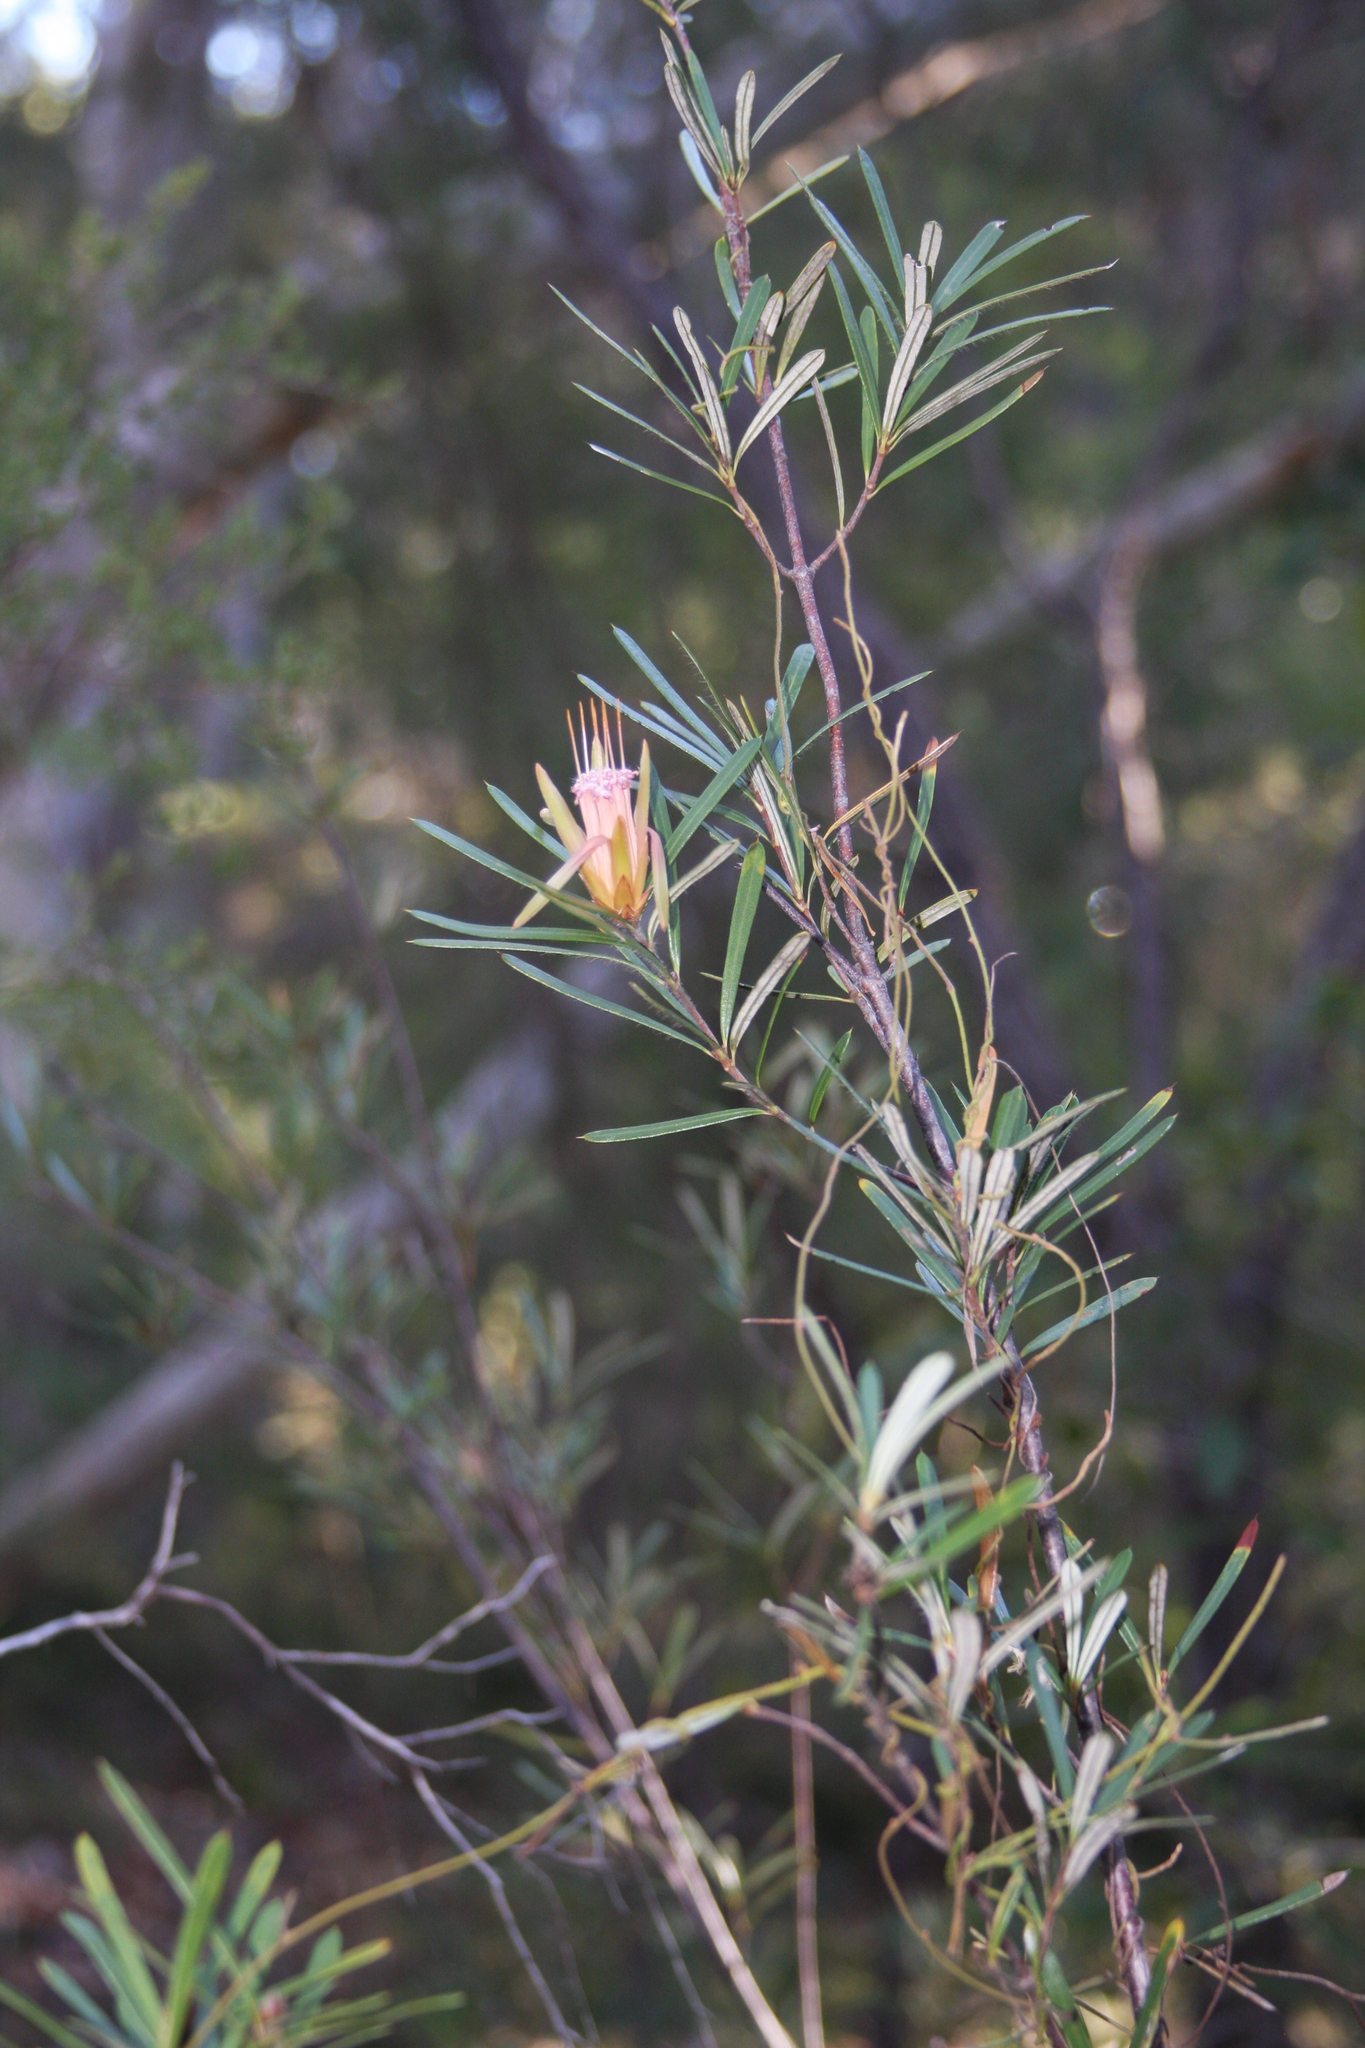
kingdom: Plantae
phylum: Tracheophyta
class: Magnoliopsida
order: Proteales
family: Proteaceae
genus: Lambertia
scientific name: Lambertia formosa
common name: Mountain-devil
